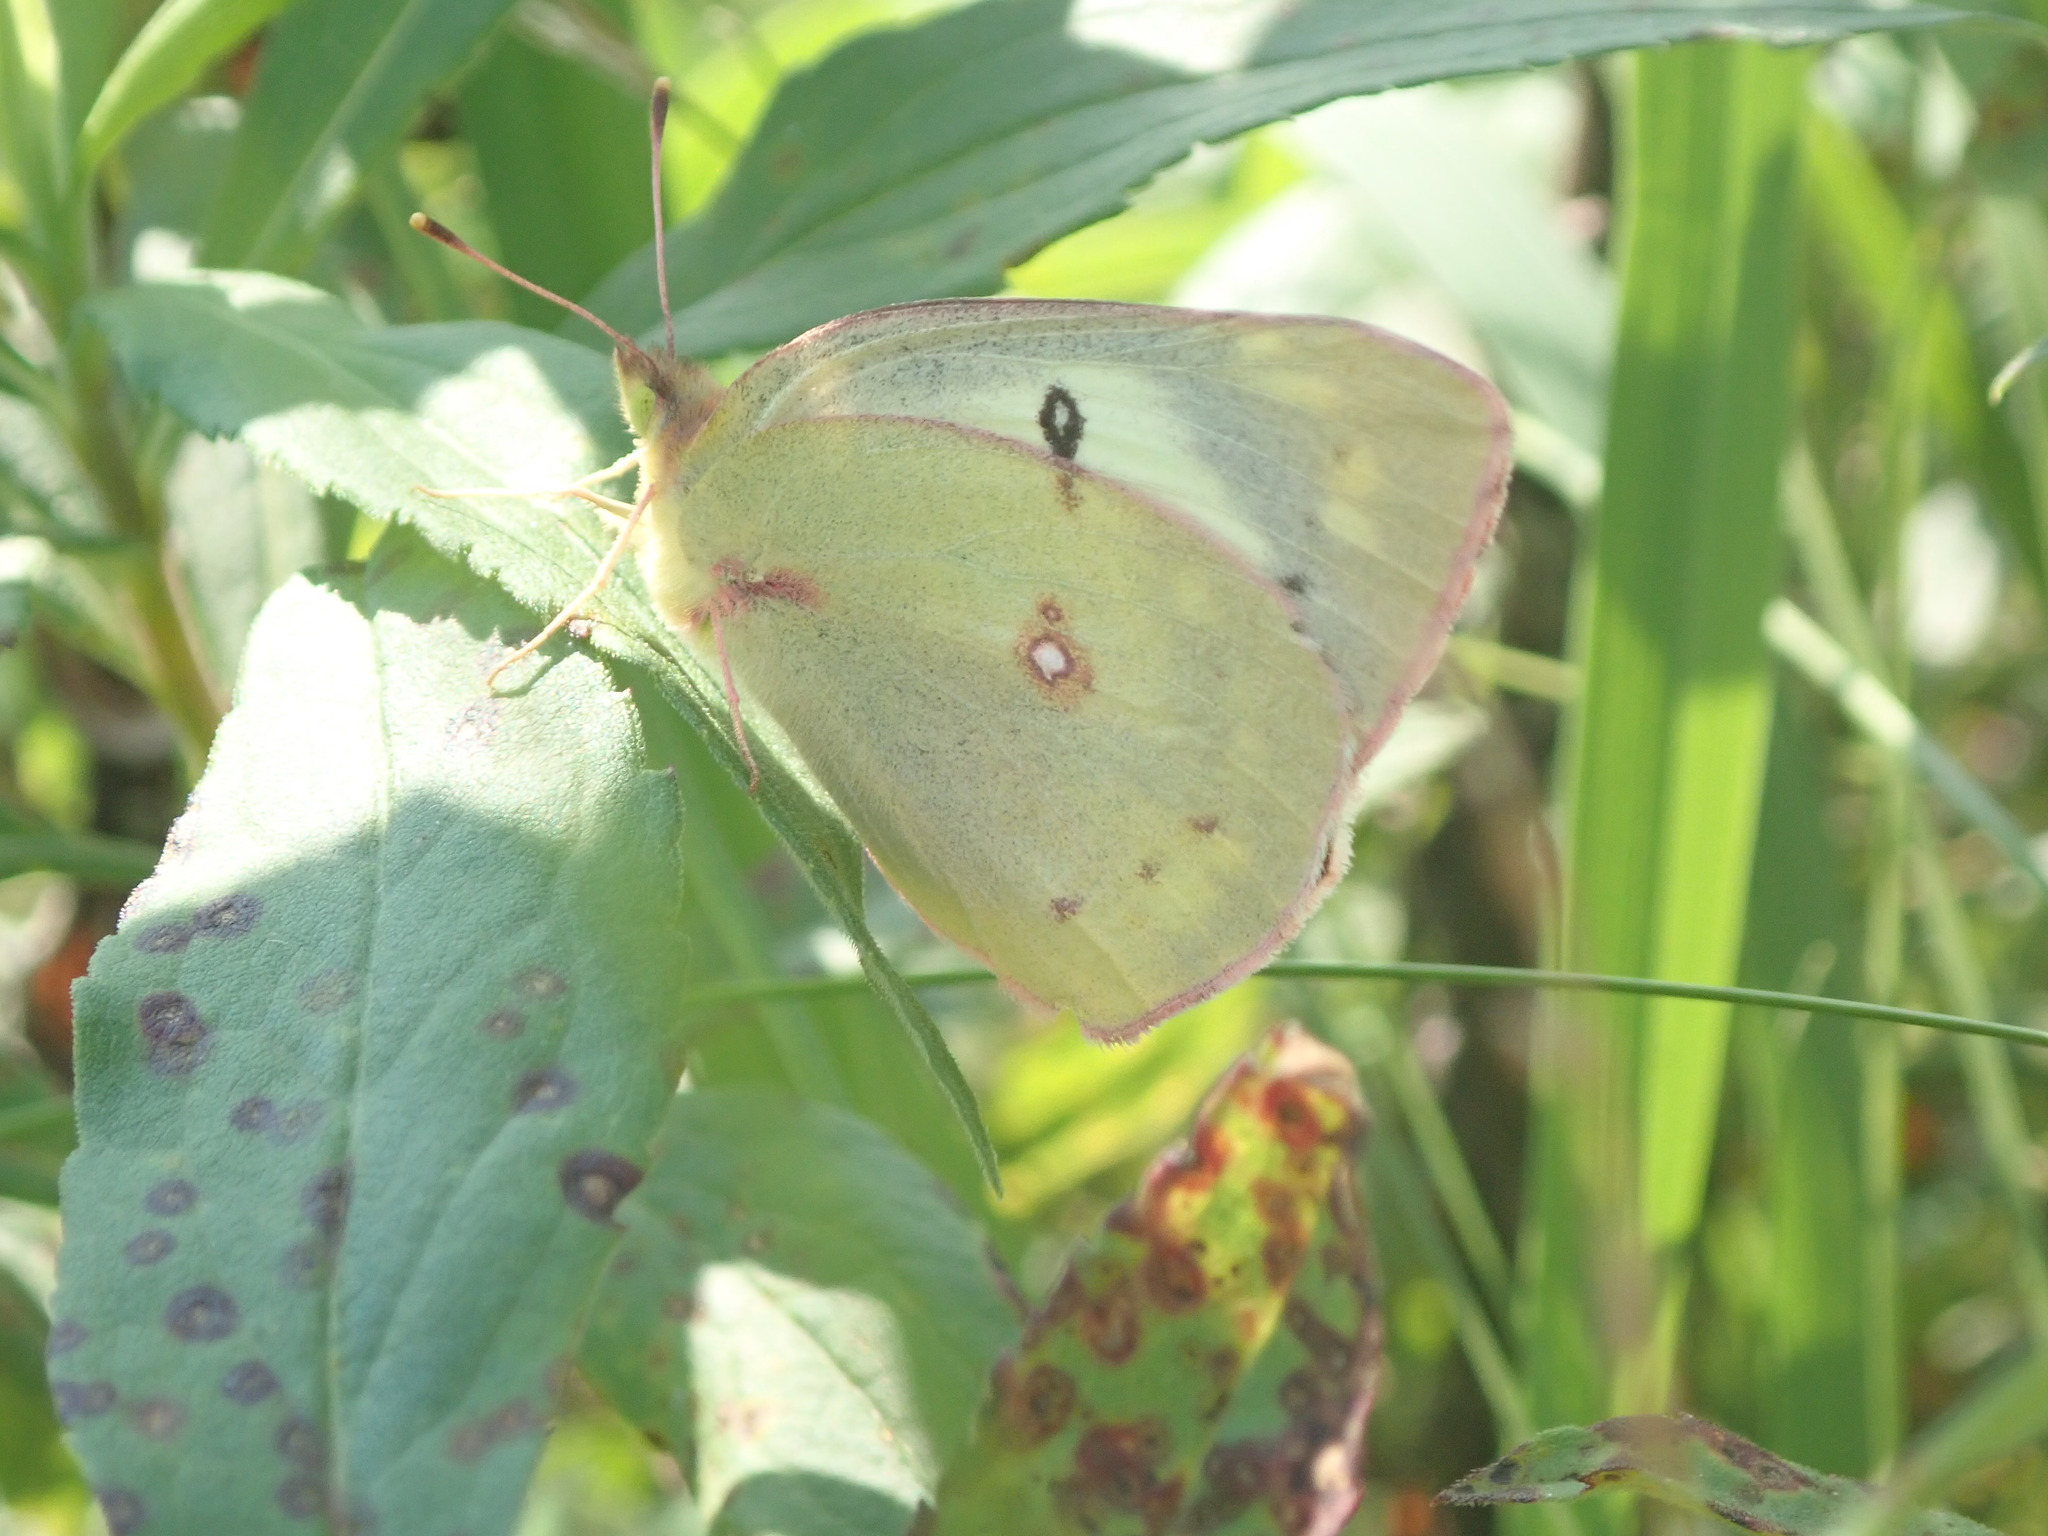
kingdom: Animalia
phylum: Arthropoda
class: Insecta
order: Lepidoptera
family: Pieridae
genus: Colias
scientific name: Colias eurytheme
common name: Alfalfa butterfly
